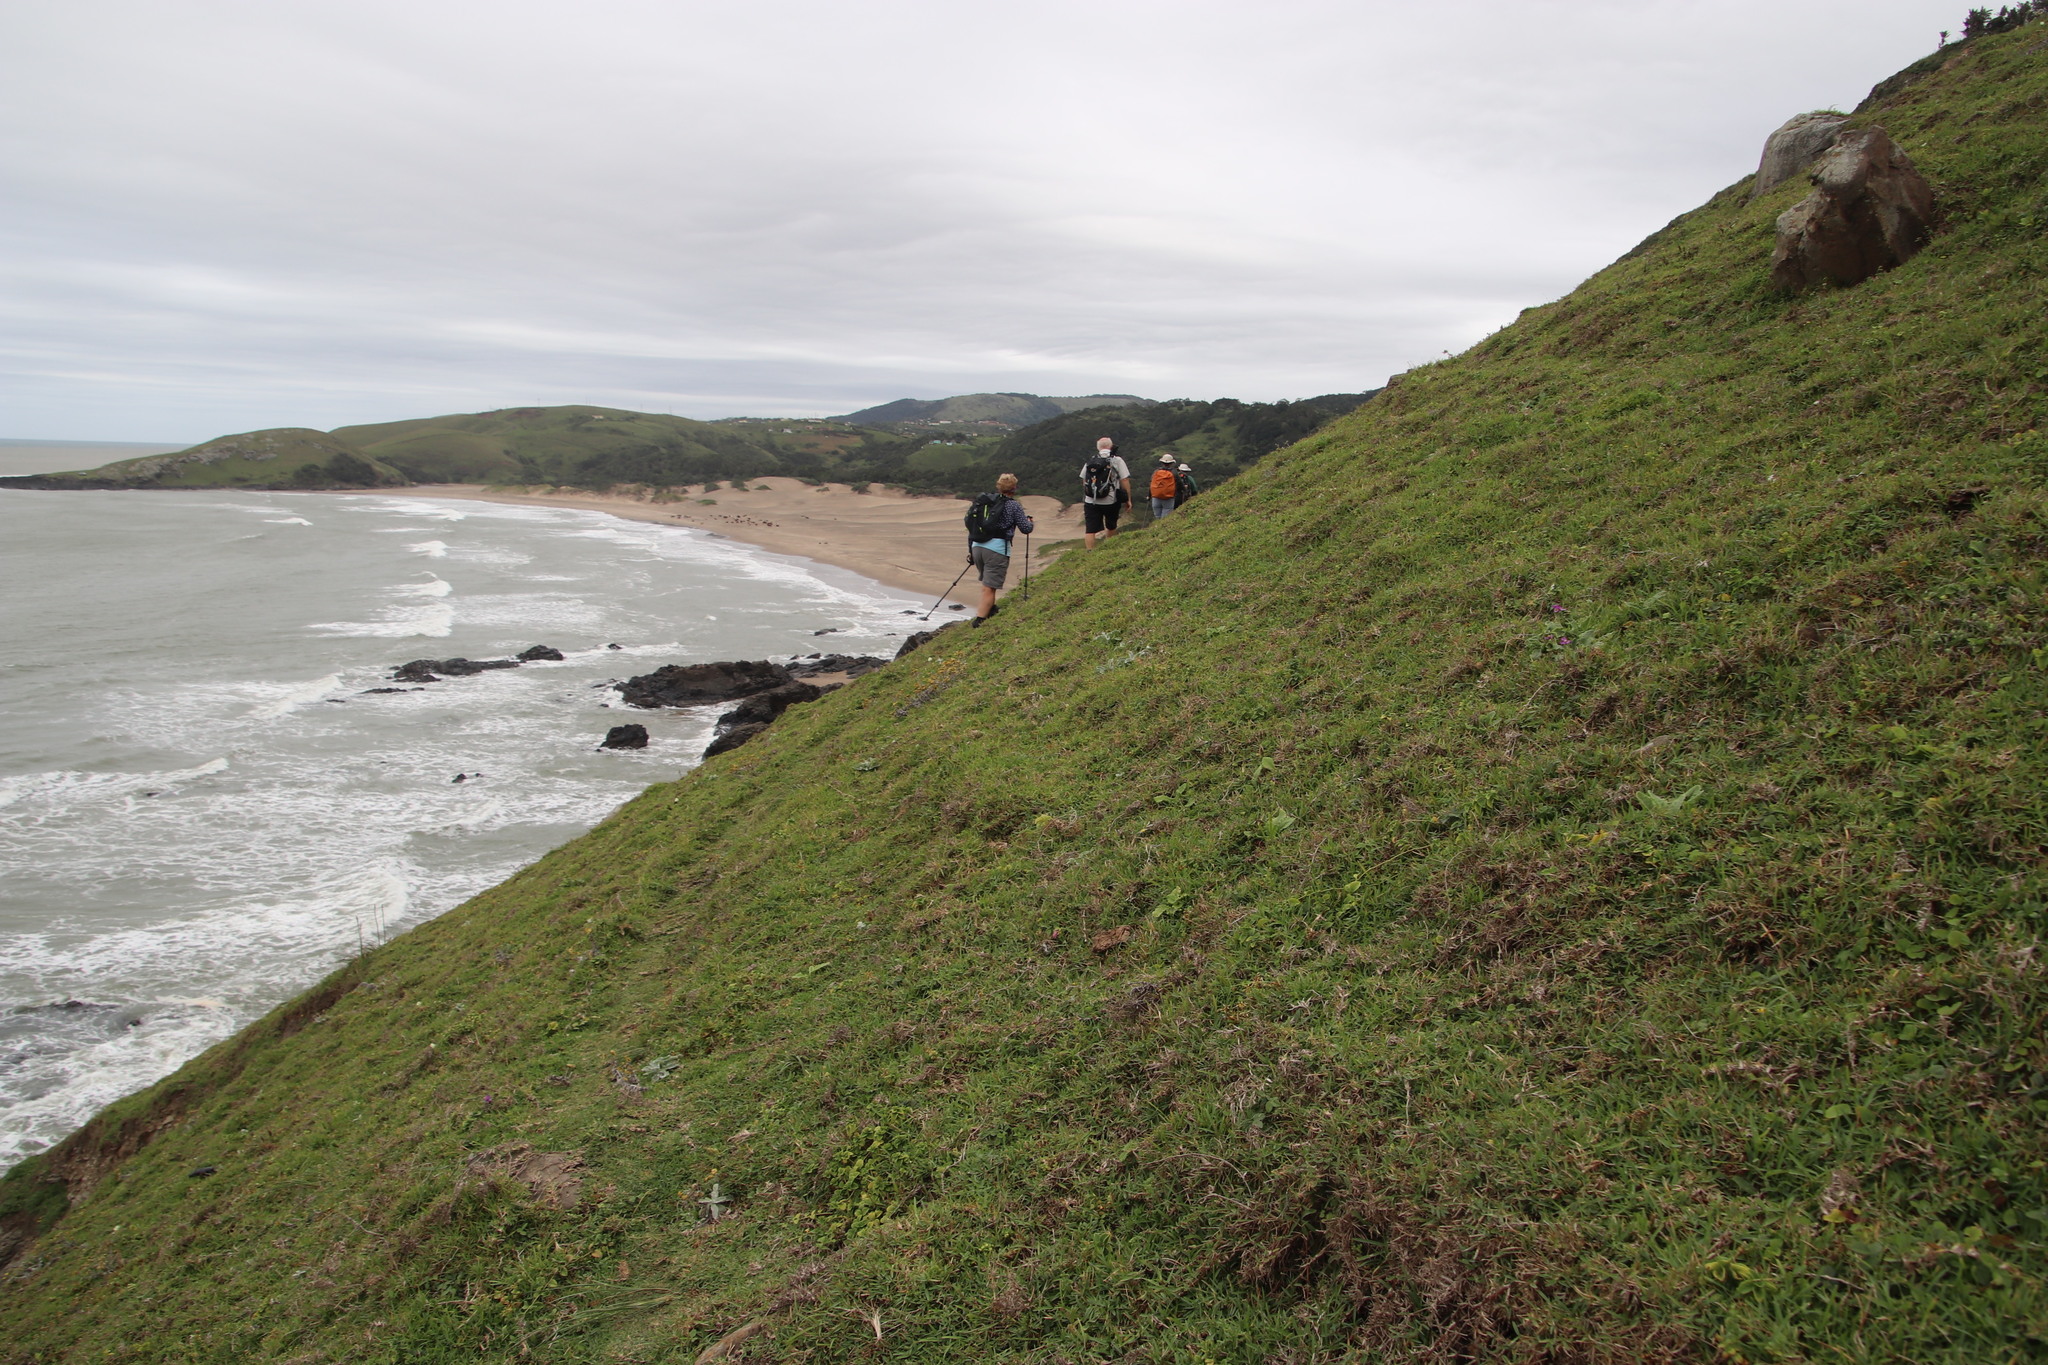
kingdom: Plantae
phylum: Tracheophyta
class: Liliopsida
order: Poales
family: Poaceae
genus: Stenotaphrum
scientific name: Stenotaphrum secundatum
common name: St. augustine grass
